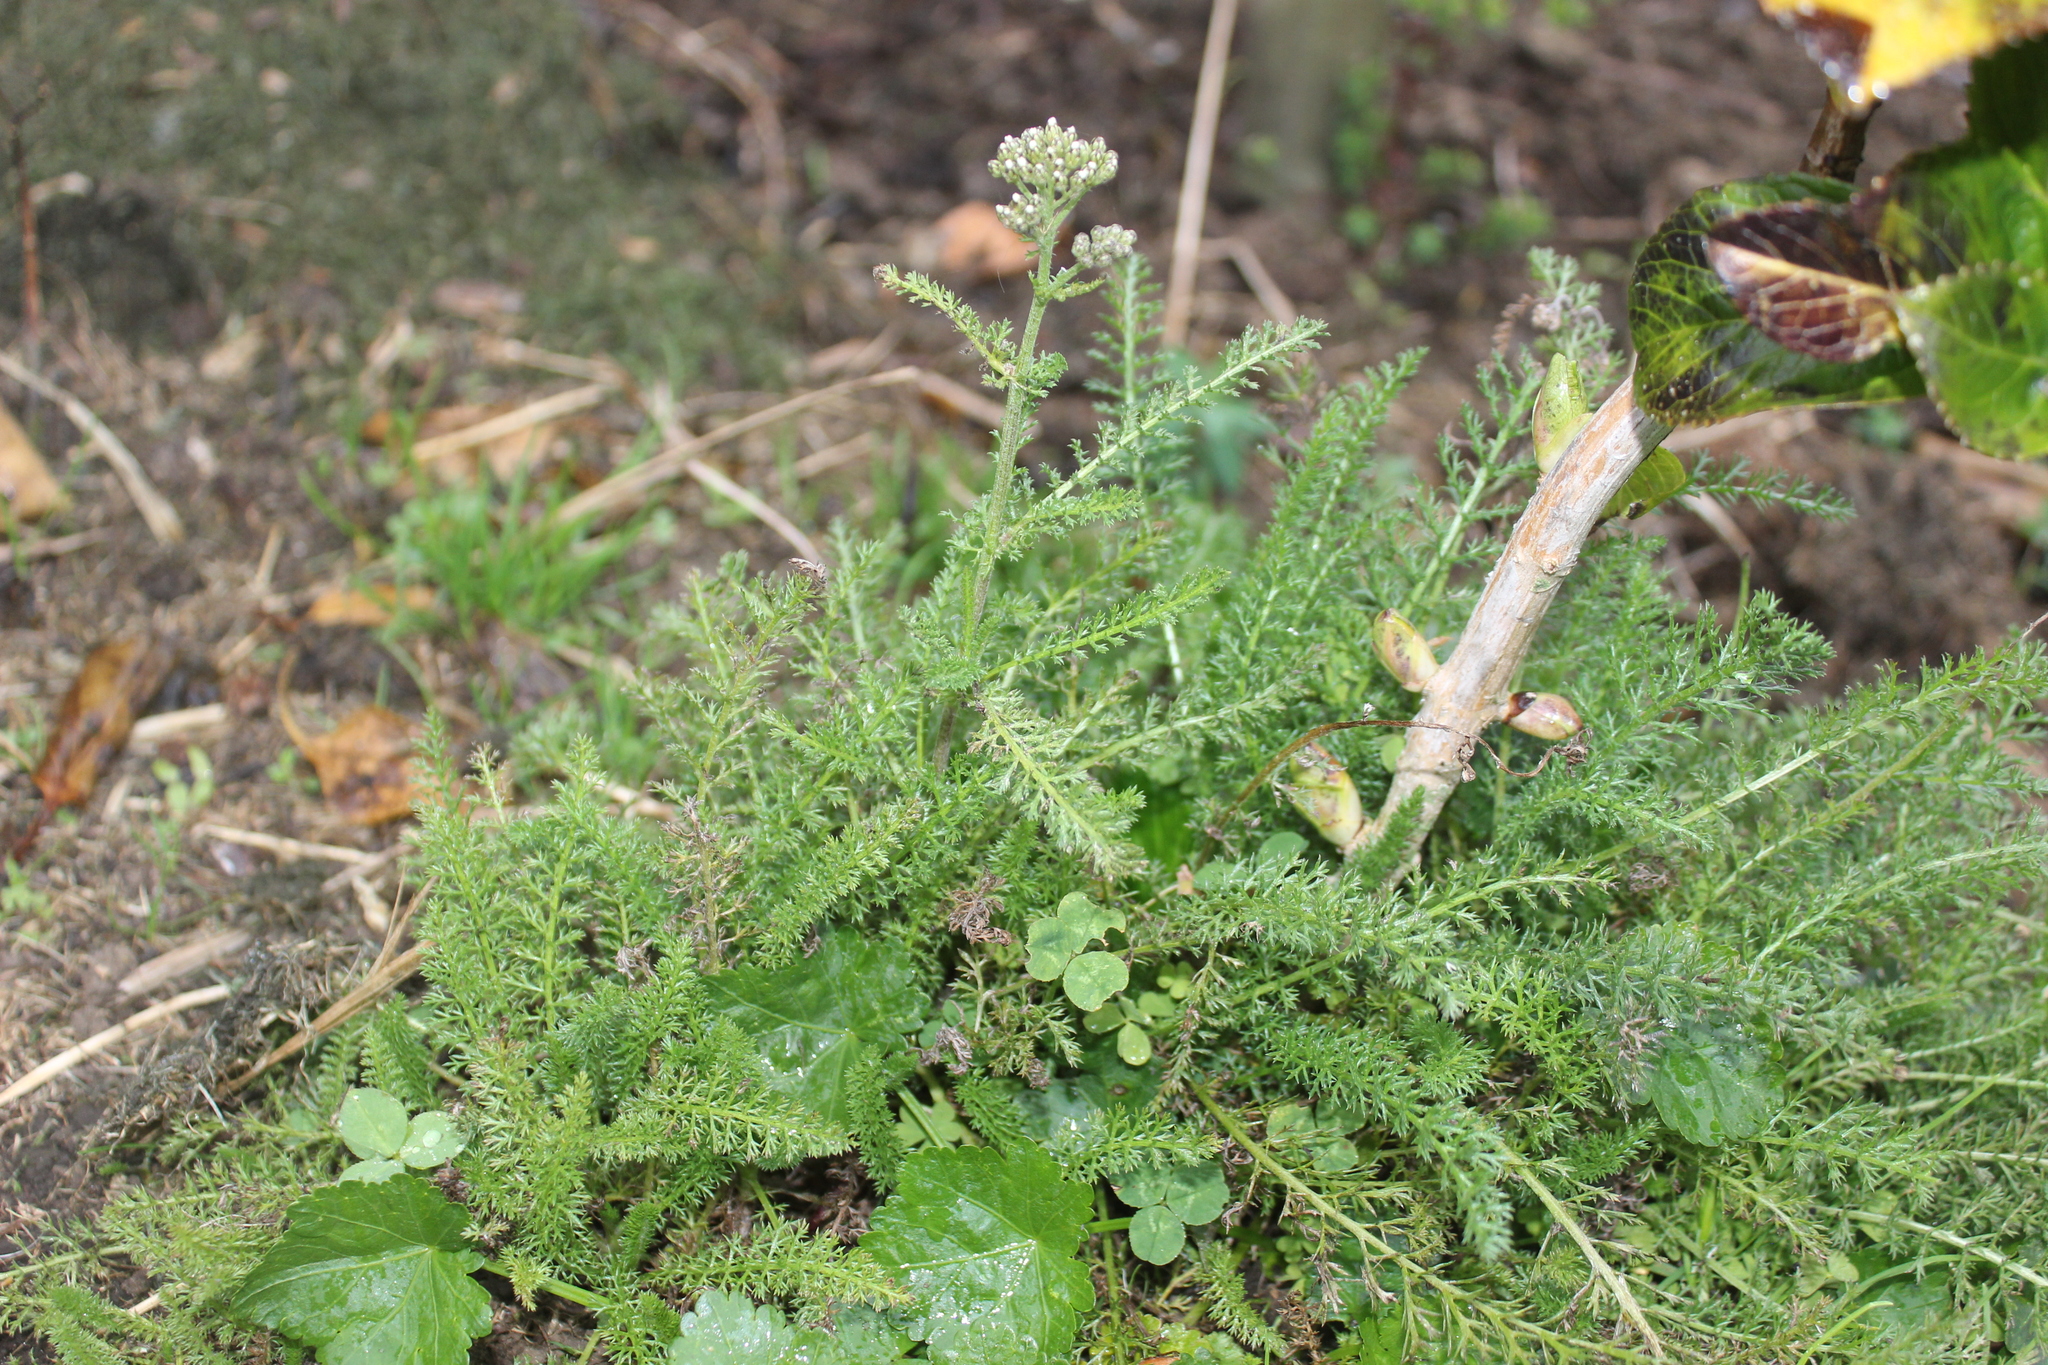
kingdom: Plantae
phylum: Tracheophyta
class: Magnoliopsida
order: Asterales
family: Asteraceae
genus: Achillea
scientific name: Achillea millefolium
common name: Yarrow
